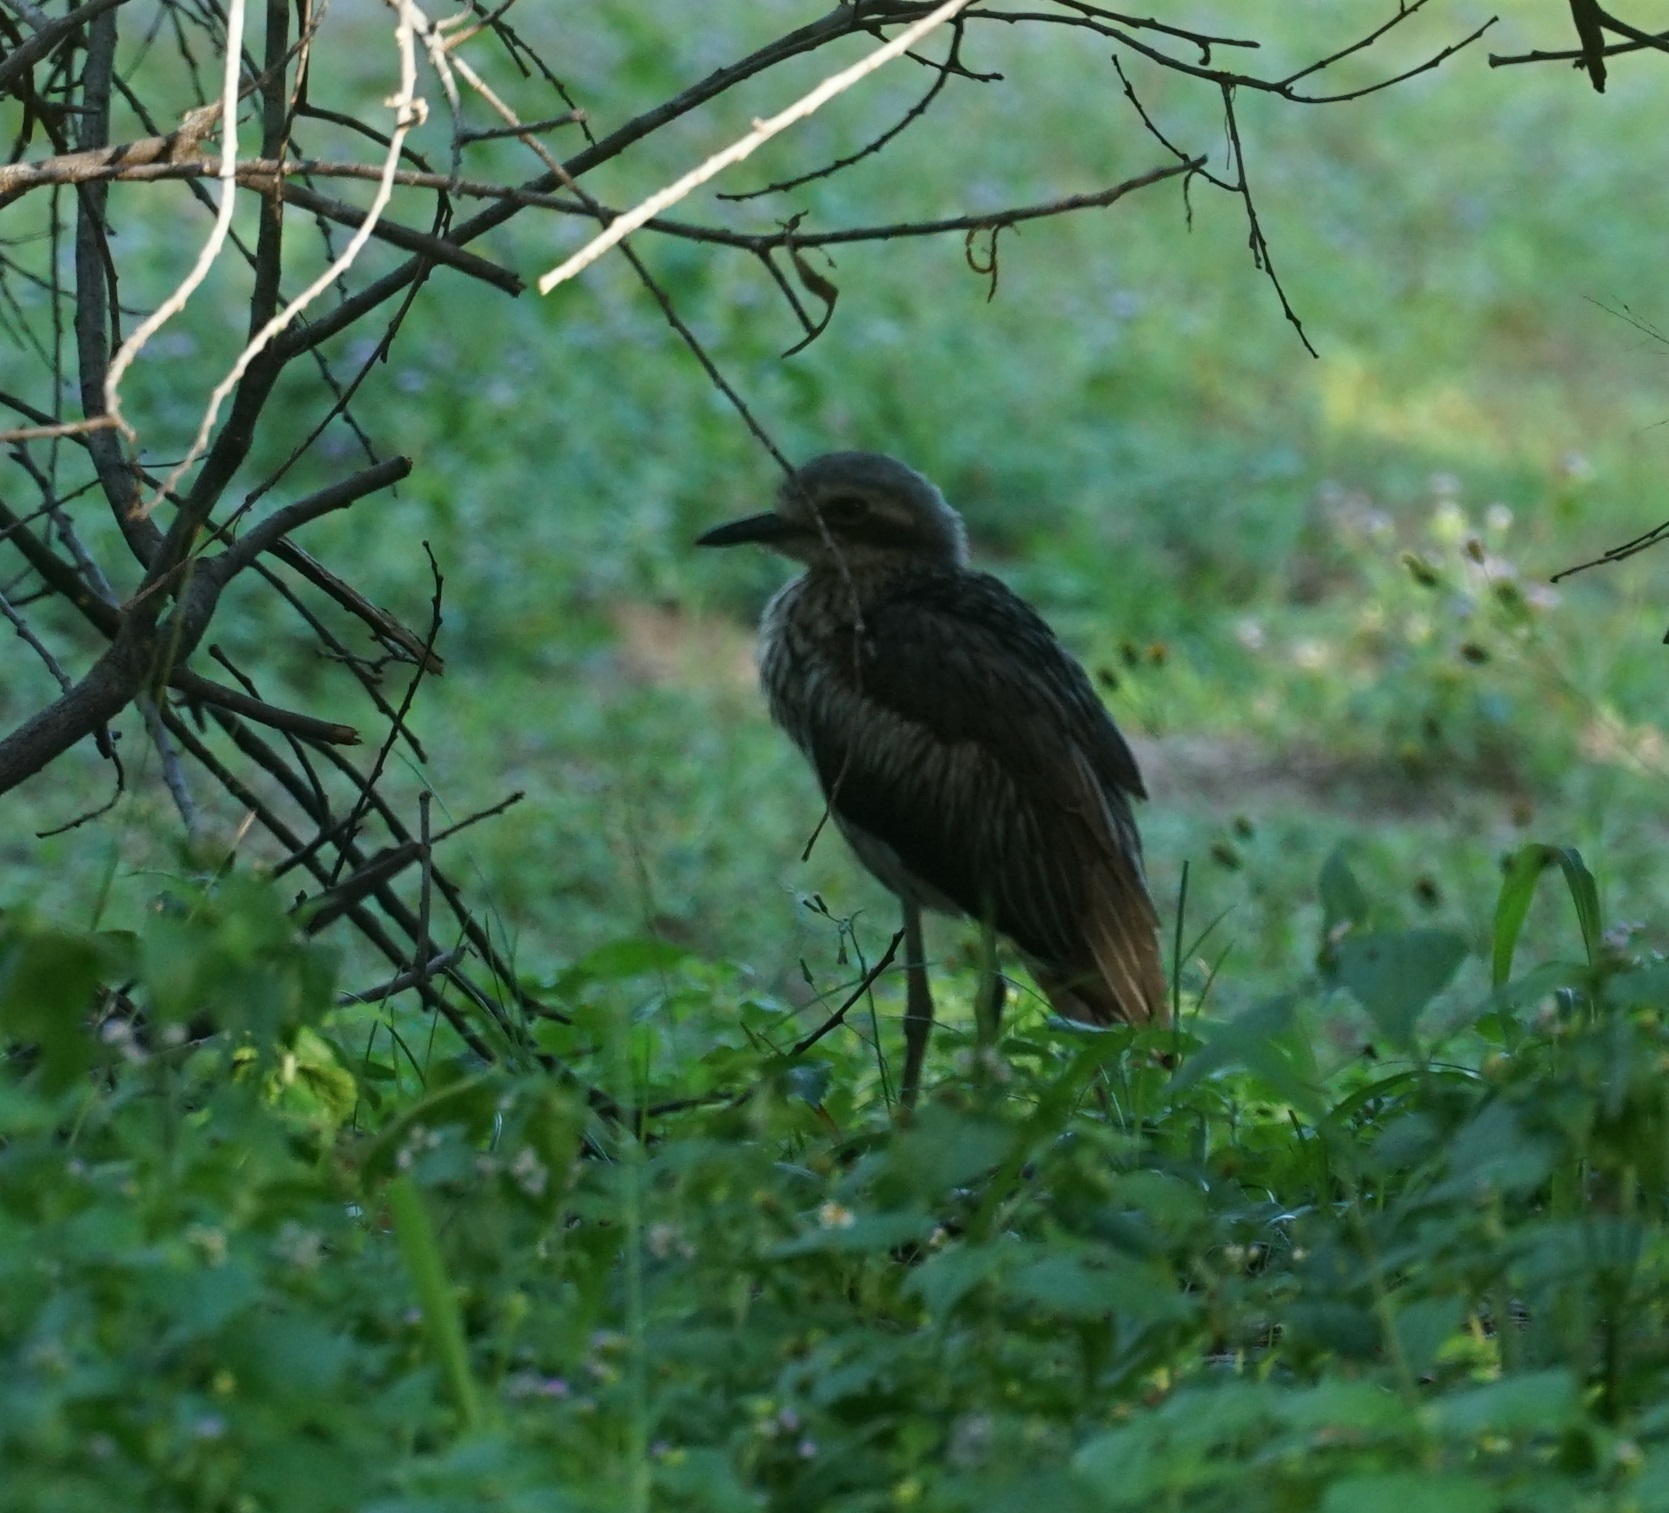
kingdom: Animalia
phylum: Chordata
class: Aves
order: Charadriiformes
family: Burhinidae
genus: Burhinus
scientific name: Burhinus grallarius
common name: Bush stone-curlew
